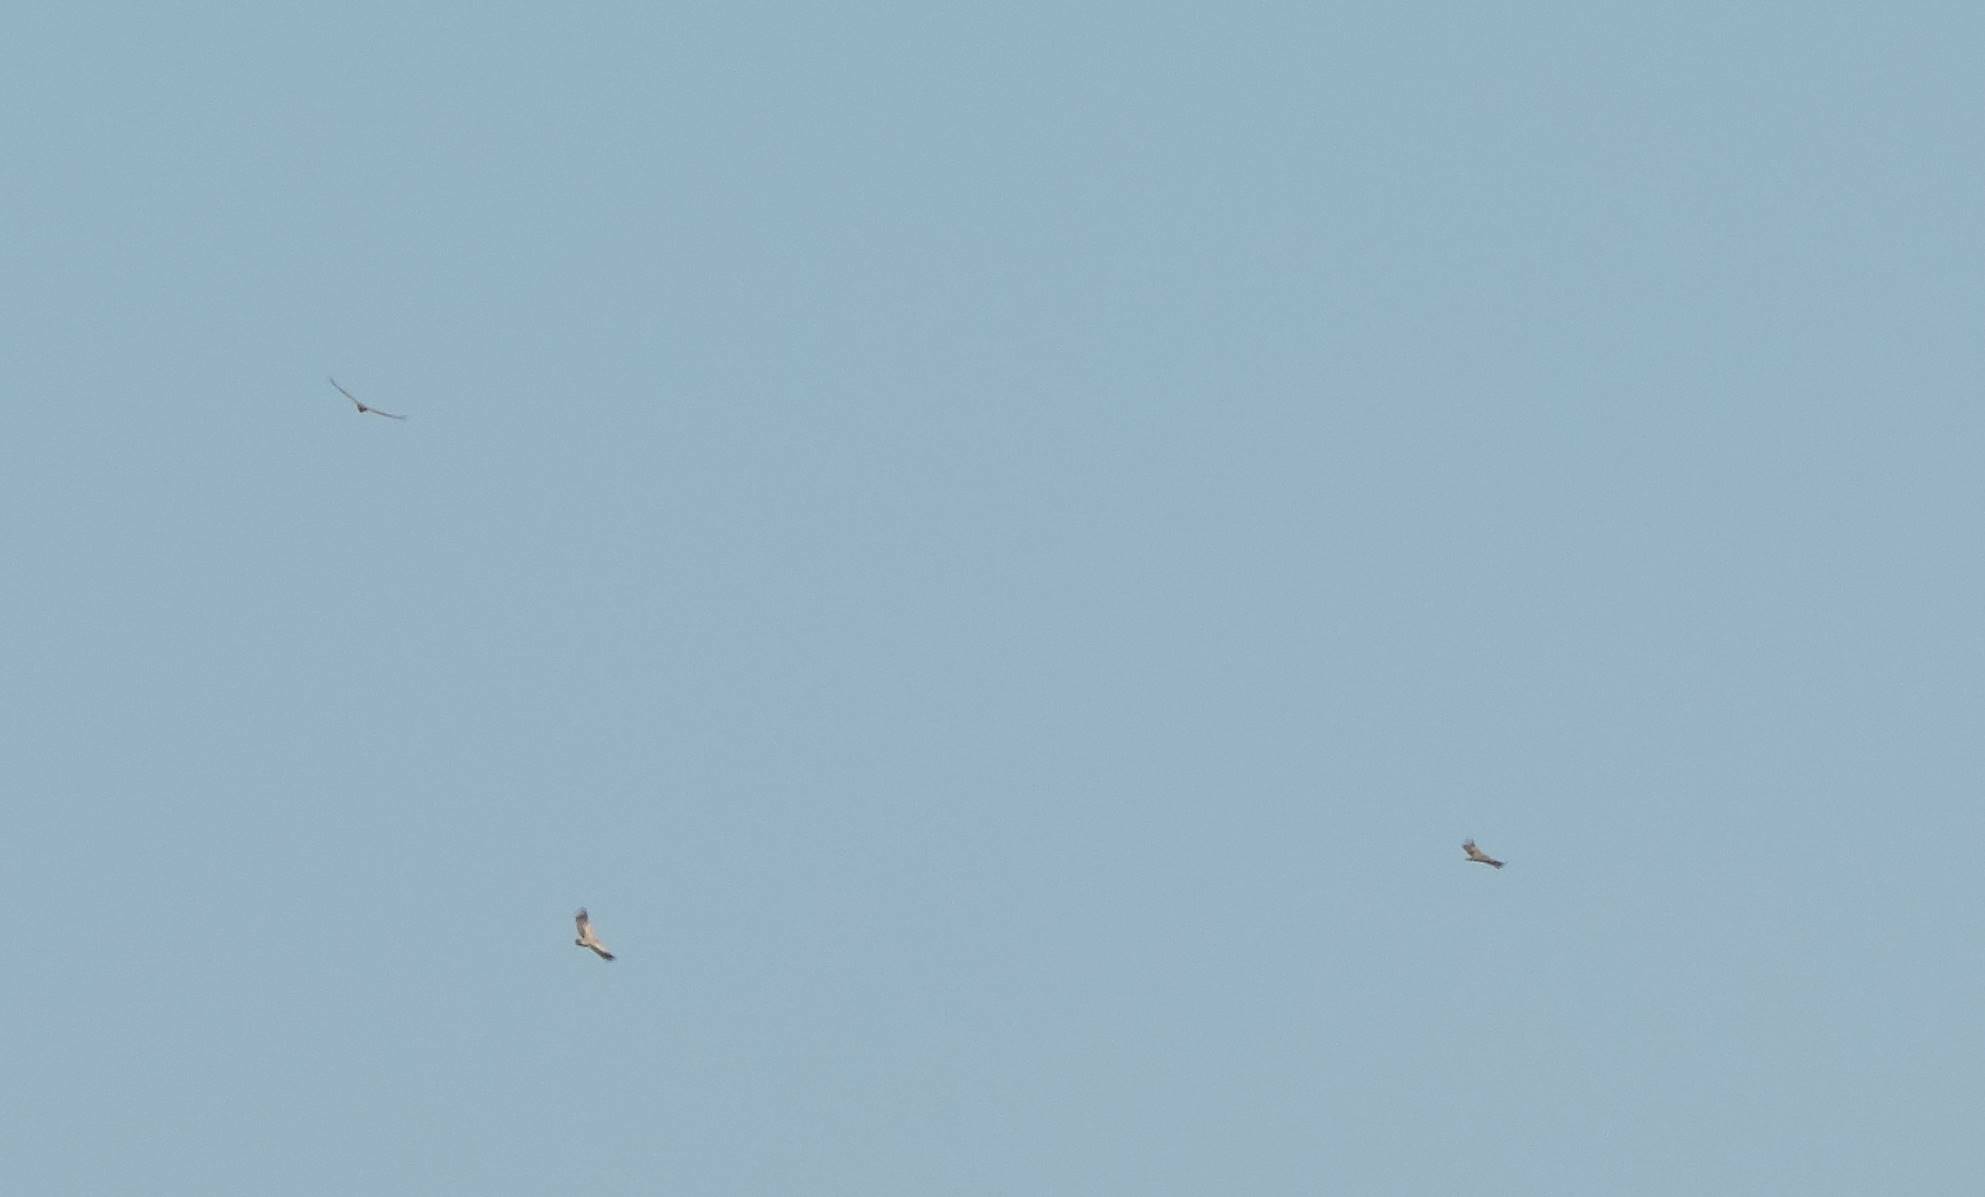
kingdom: Animalia
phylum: Chordata
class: Aves
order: Accipitriformes
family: Accipitridae
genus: Gyps
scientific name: Gyps fulvus
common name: Griffon vulture
